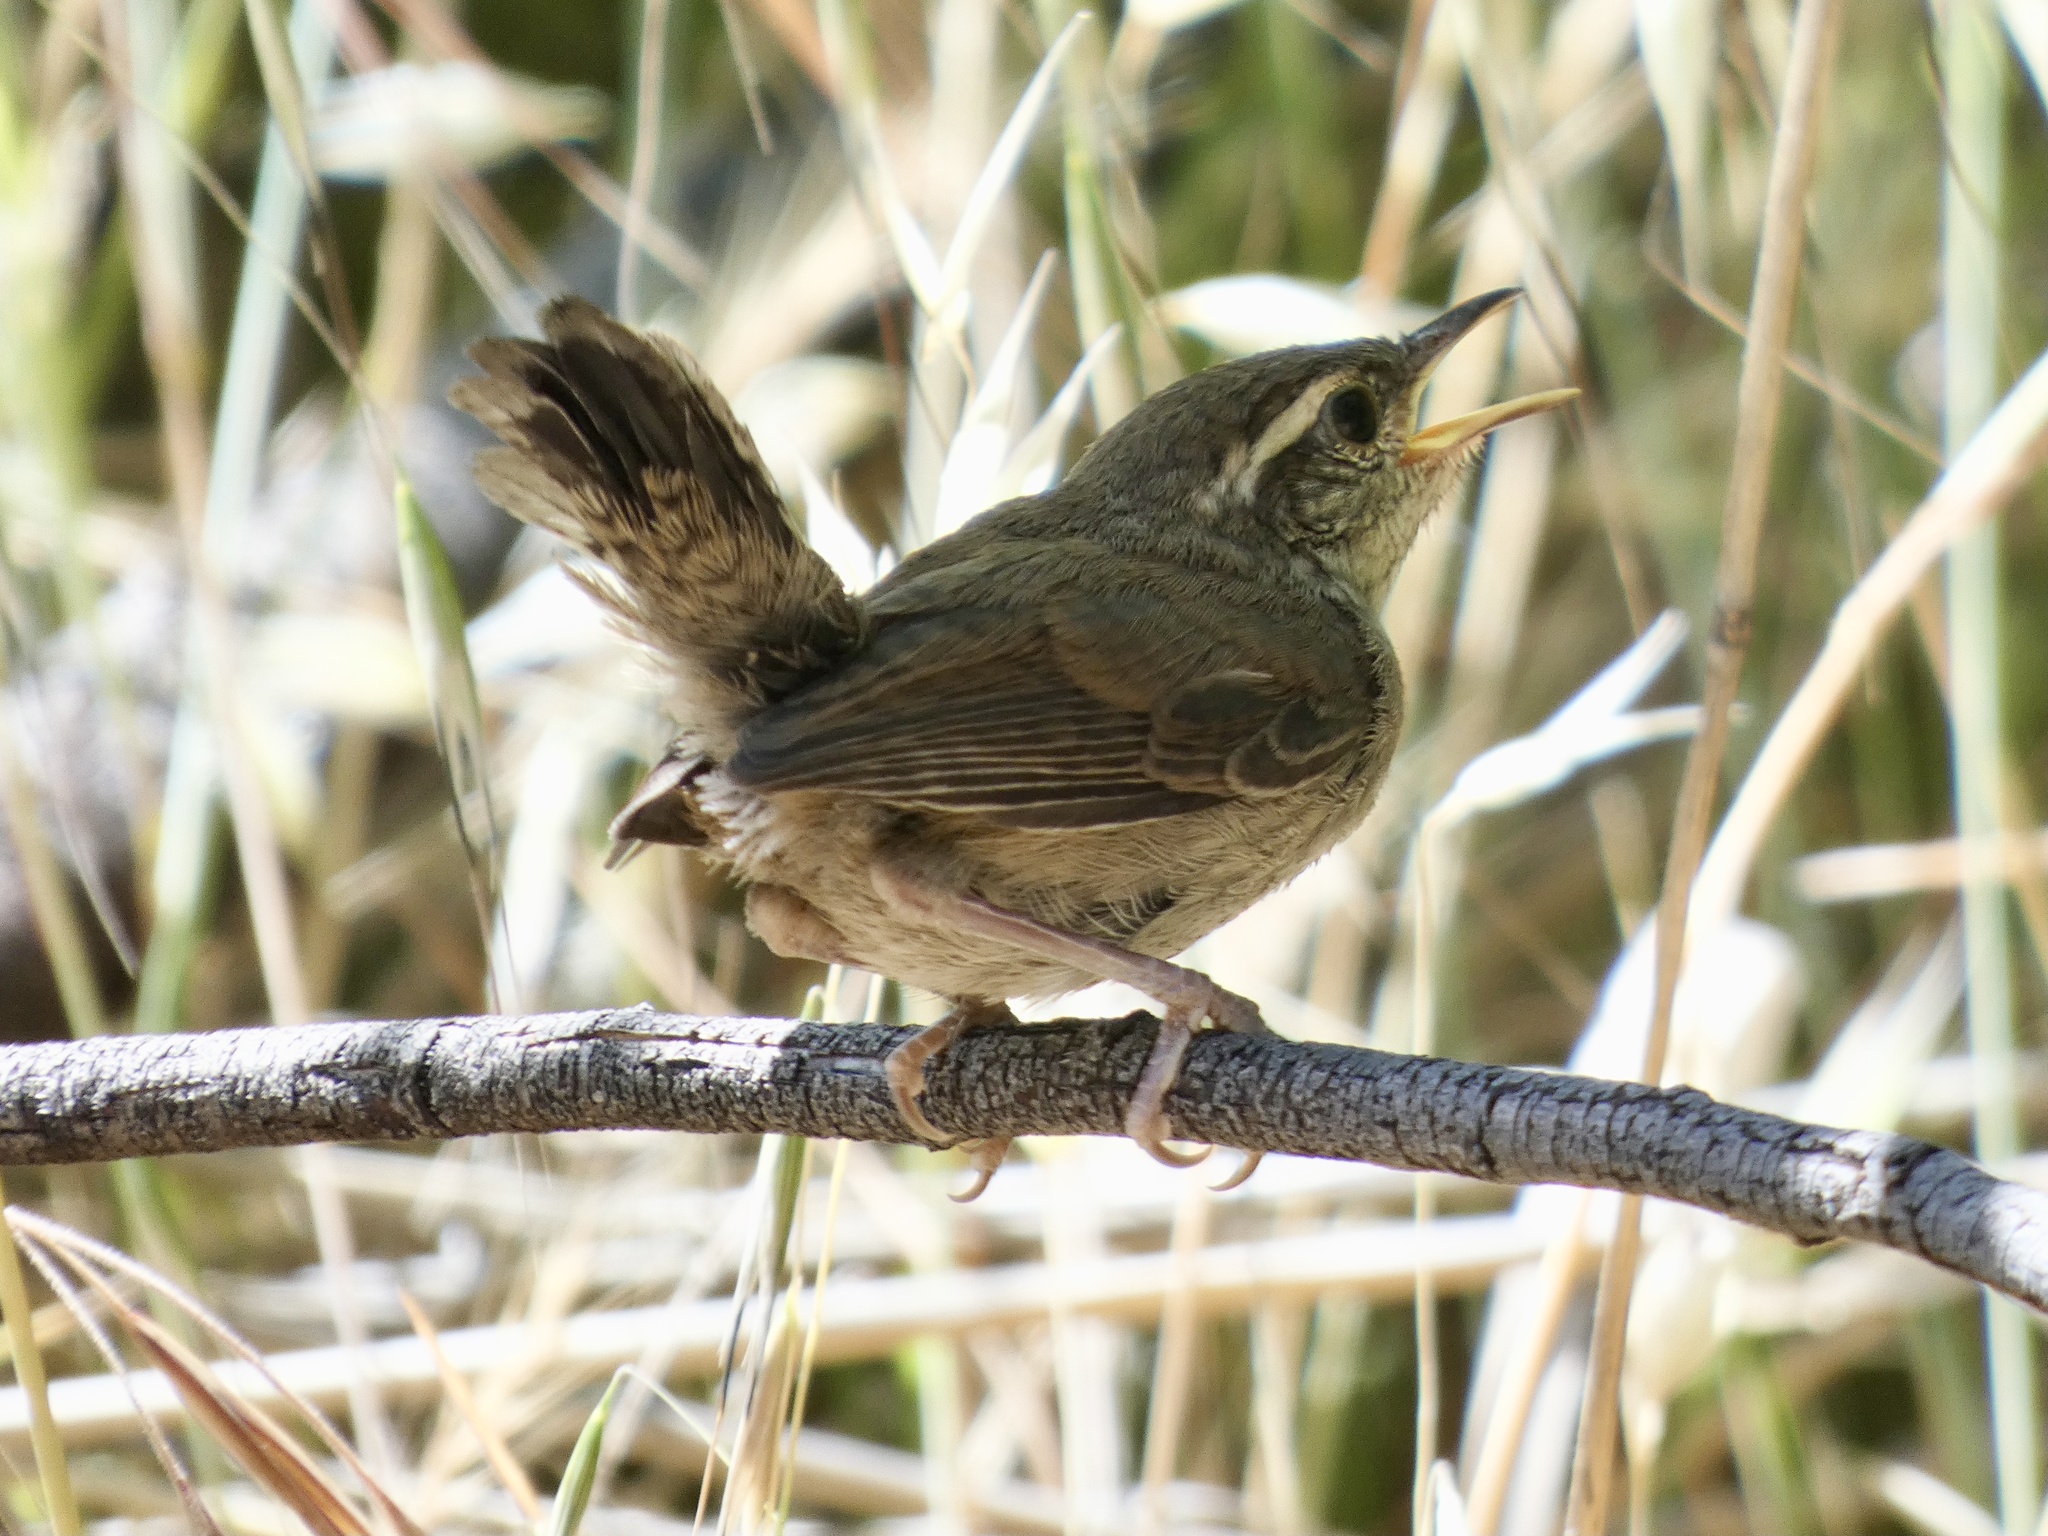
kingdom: Animalia
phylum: Chordata
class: Aves
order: Passeriformes
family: Troglodytidae
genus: Thryomanes
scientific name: Thryomanes bewickii
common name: Bewick's wren
